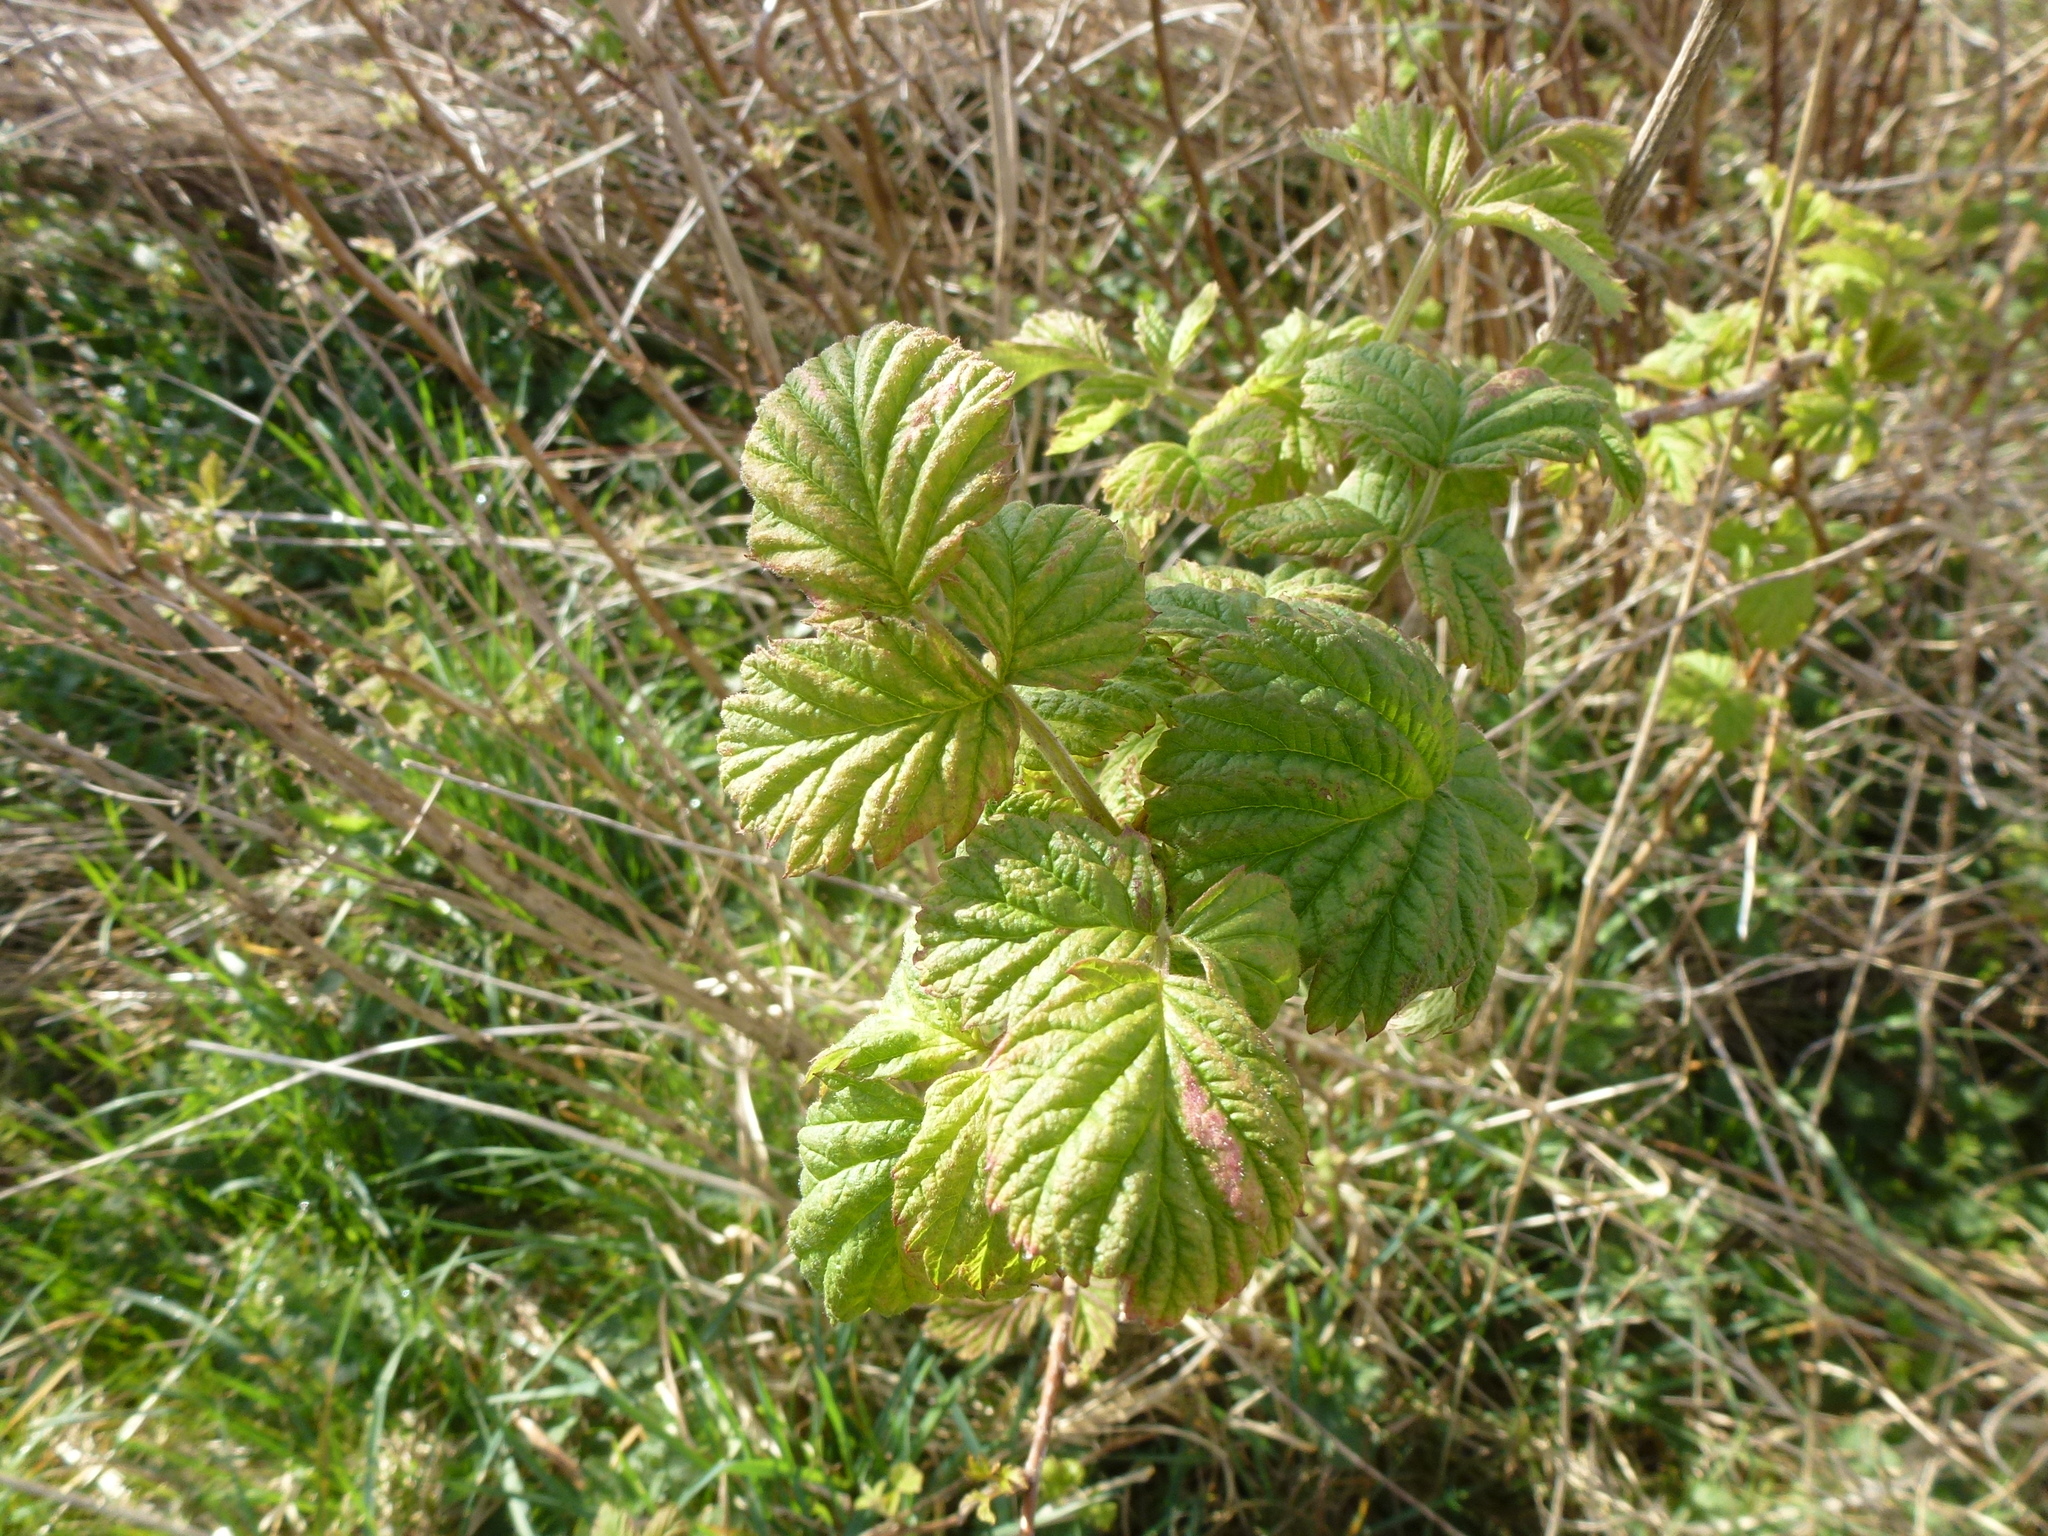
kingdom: Plantae
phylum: Tracheophyta
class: Magnoliopsida
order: Rosales
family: Rosaceae
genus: Rubus
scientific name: Rubus idaeus
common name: Raspberry
